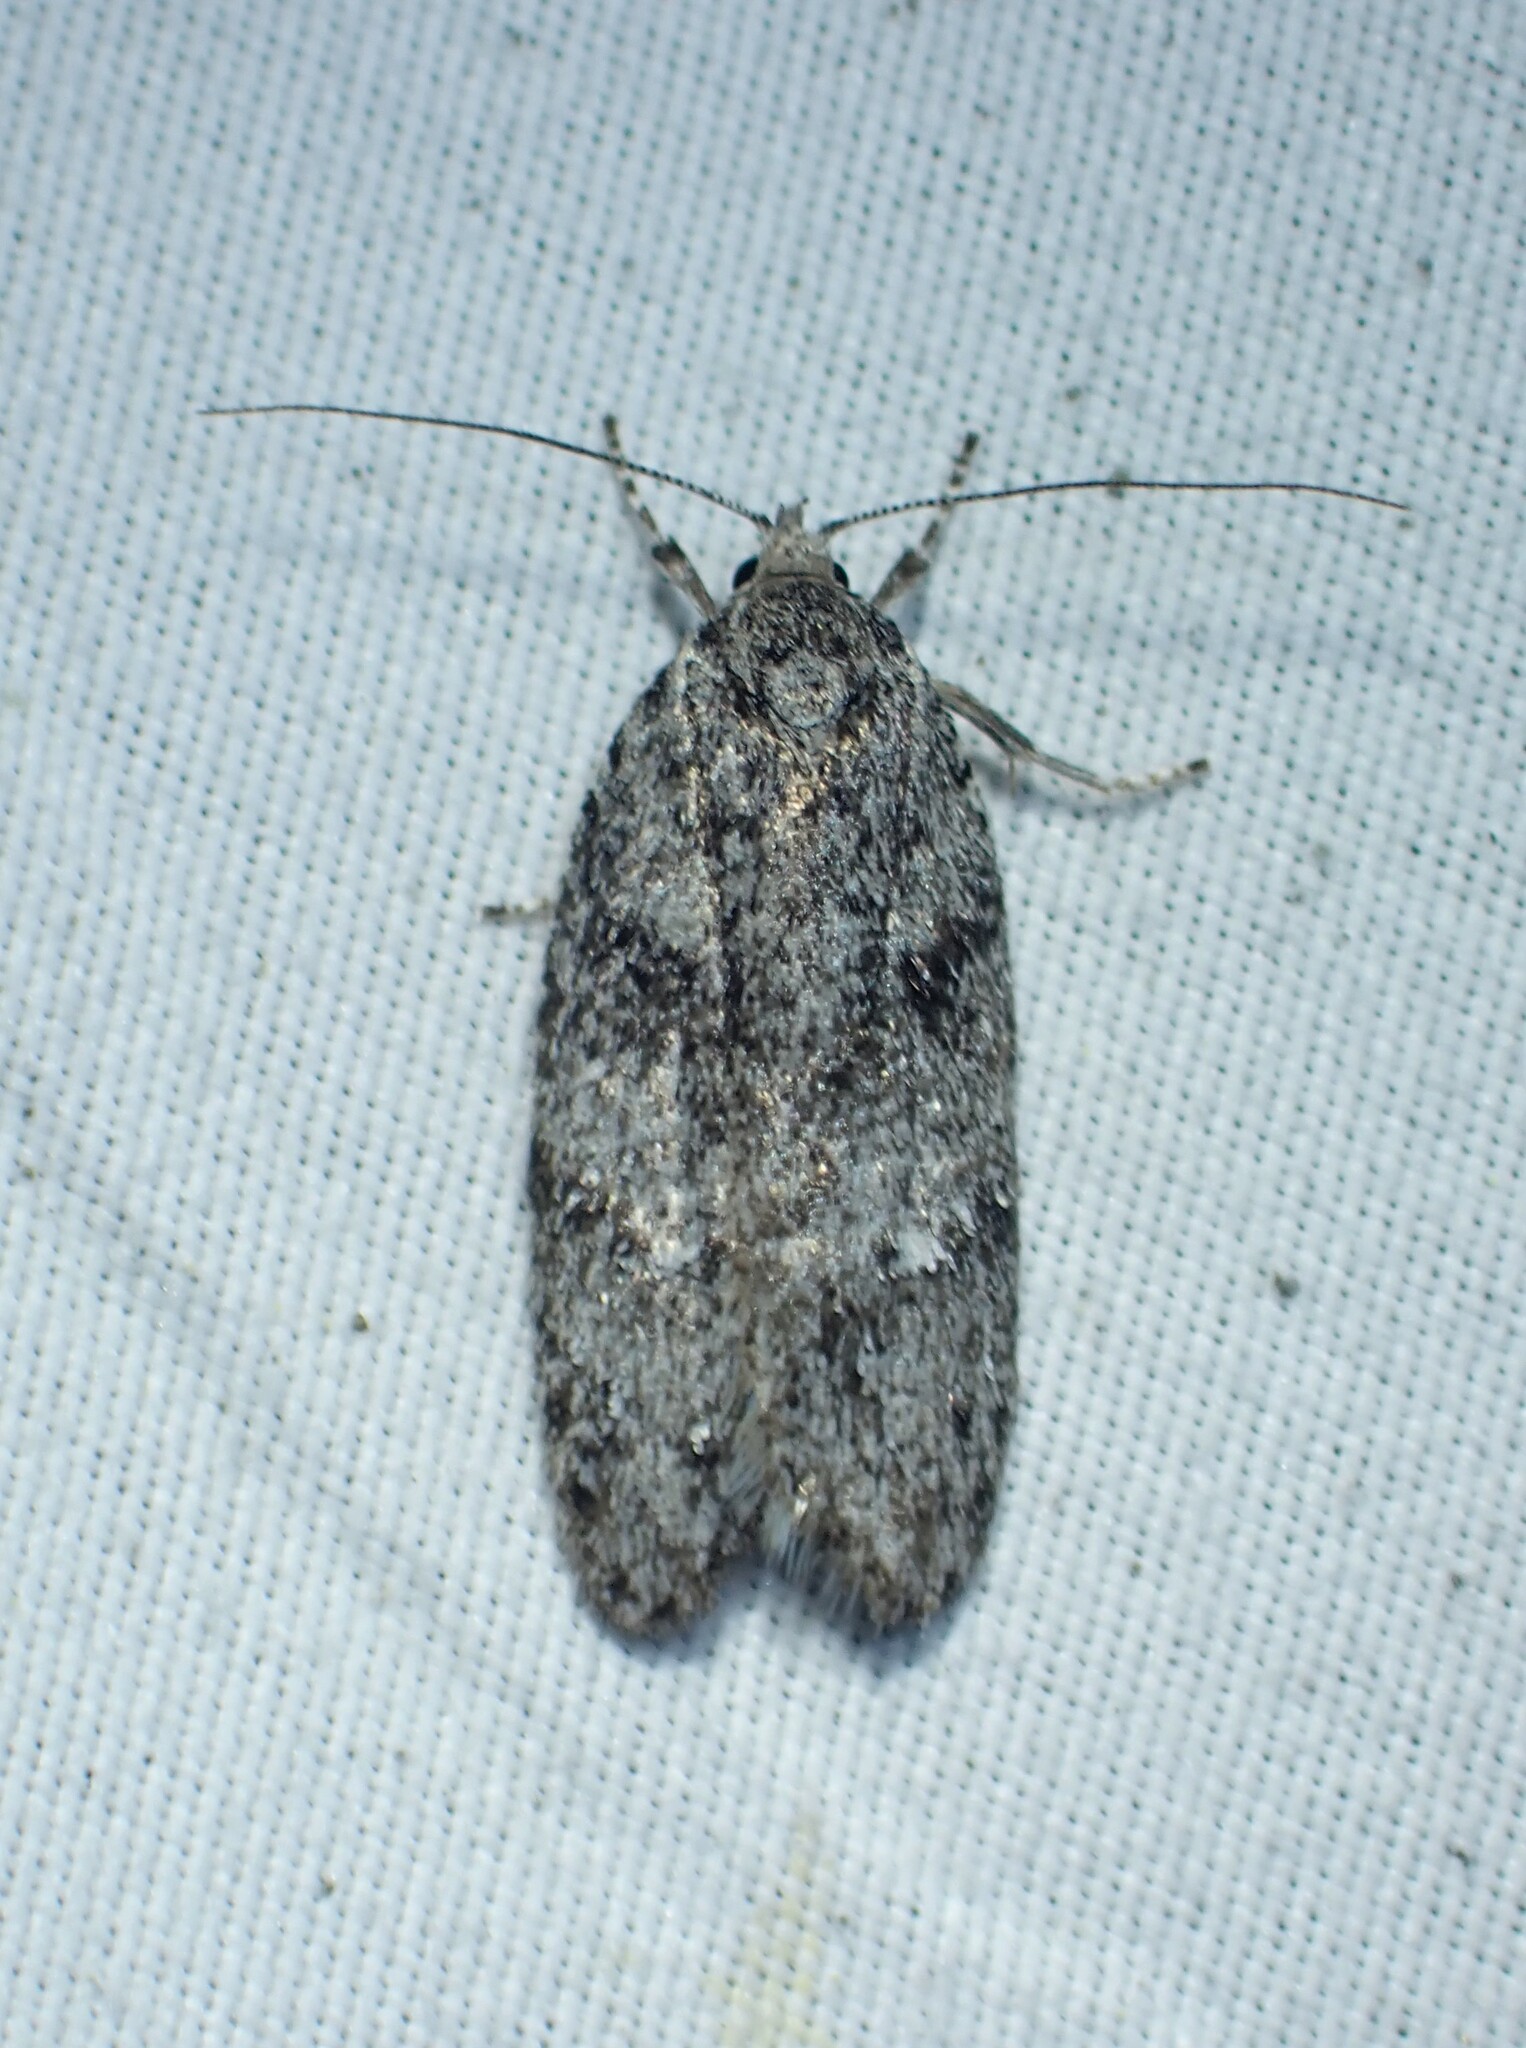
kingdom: Animalia
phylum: Arthropoda
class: Insecta
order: Lepidoptera
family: Depressariidae
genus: Semioscopis
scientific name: Semioscopis inornata
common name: Poplar micromoth
